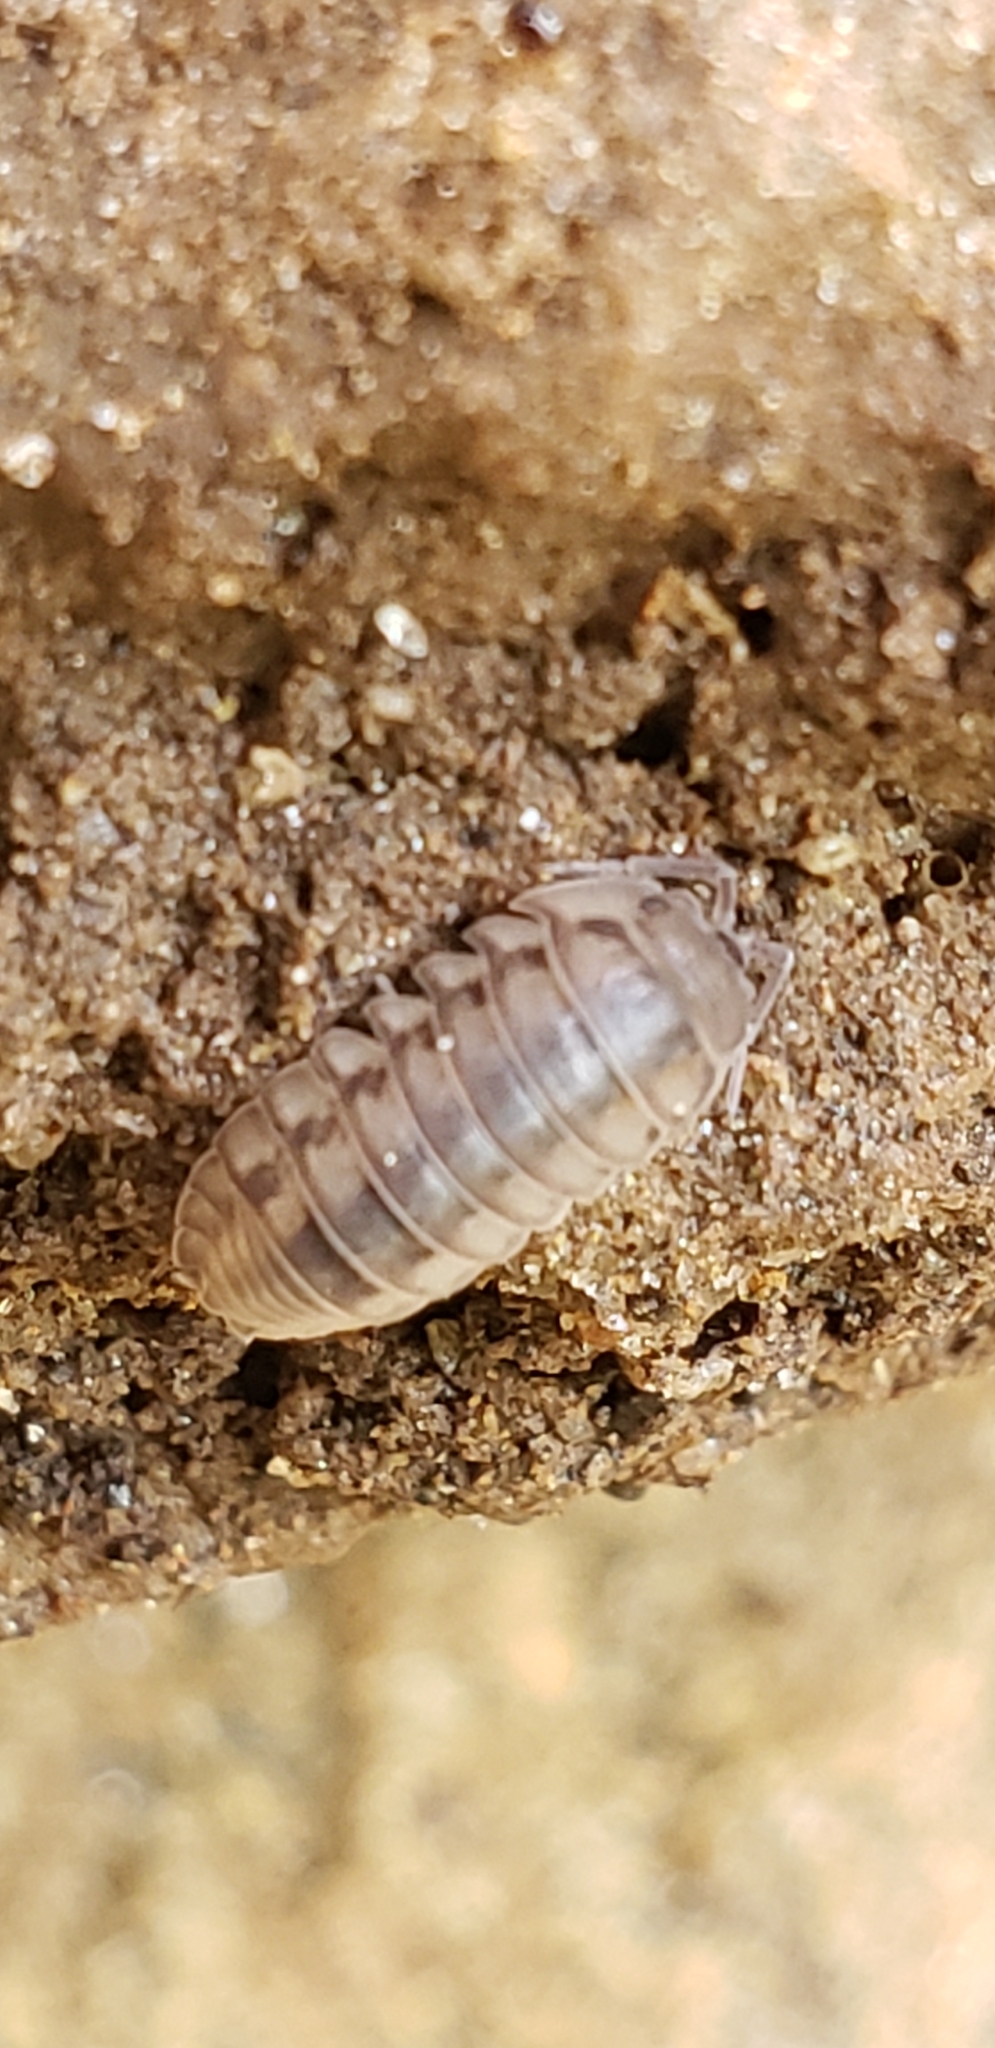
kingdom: Animalia
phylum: Arthropoda
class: Malacostraca
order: Isopoda
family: Armadillidiidae
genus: Armadillidium
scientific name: Armadillidium nasatum
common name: Isopod
